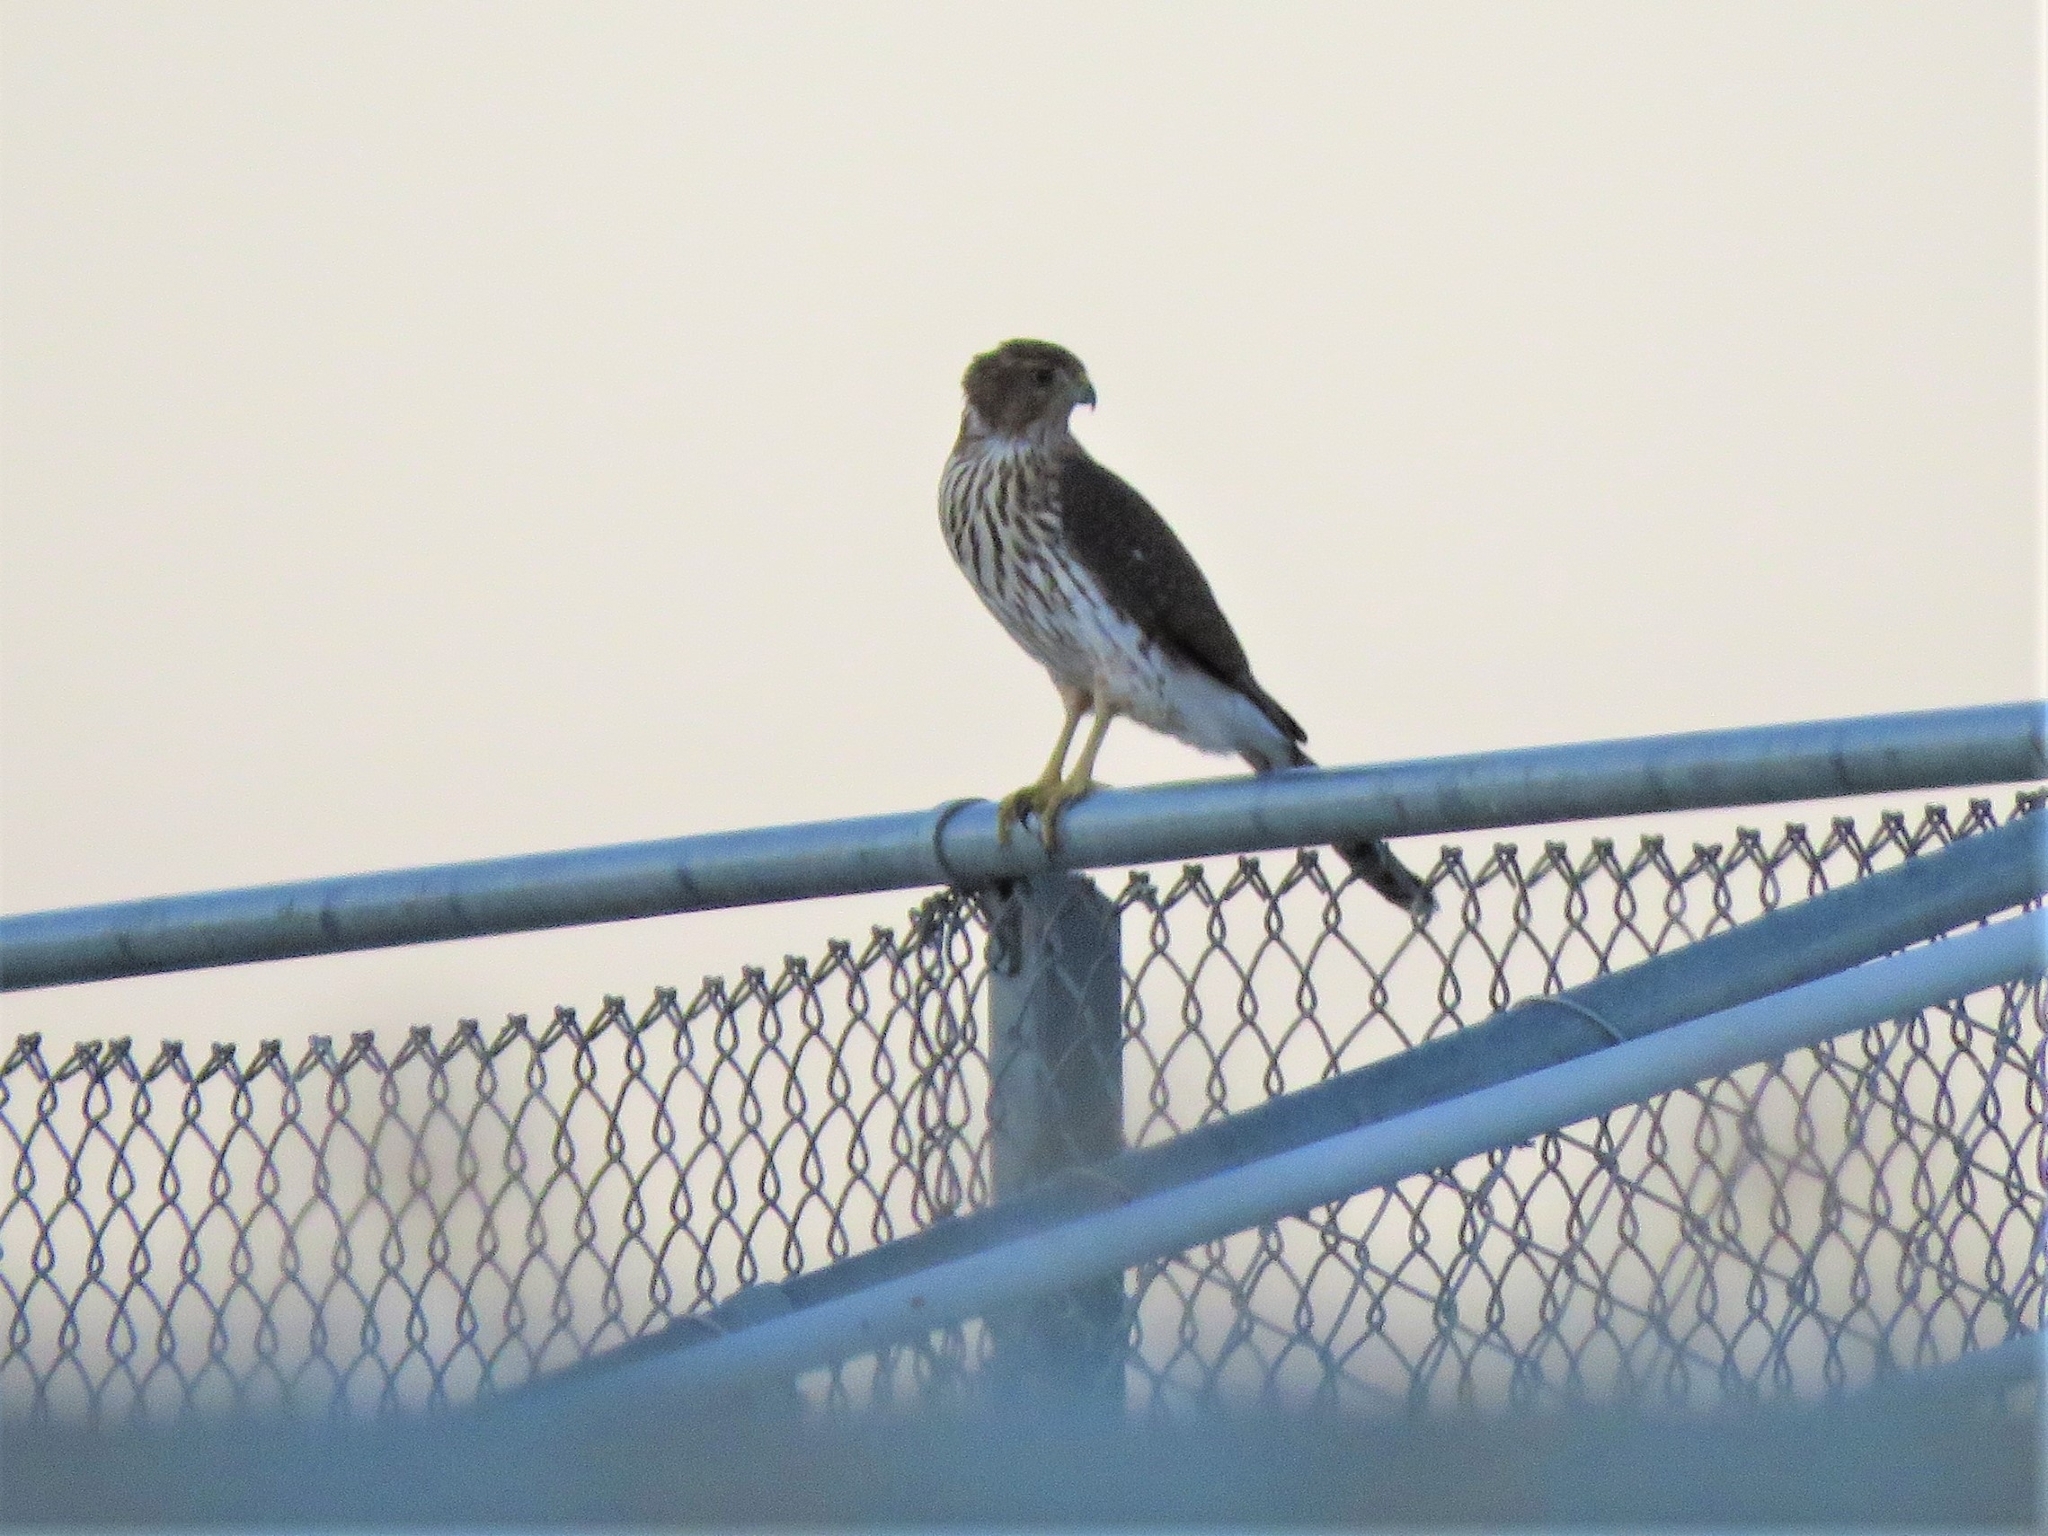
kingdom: Animalia
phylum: Chordata
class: Aves
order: Accipitriformes
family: Accipitridae
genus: Accipiter
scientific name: Accipiter cooperii
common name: Cooper's hawk
